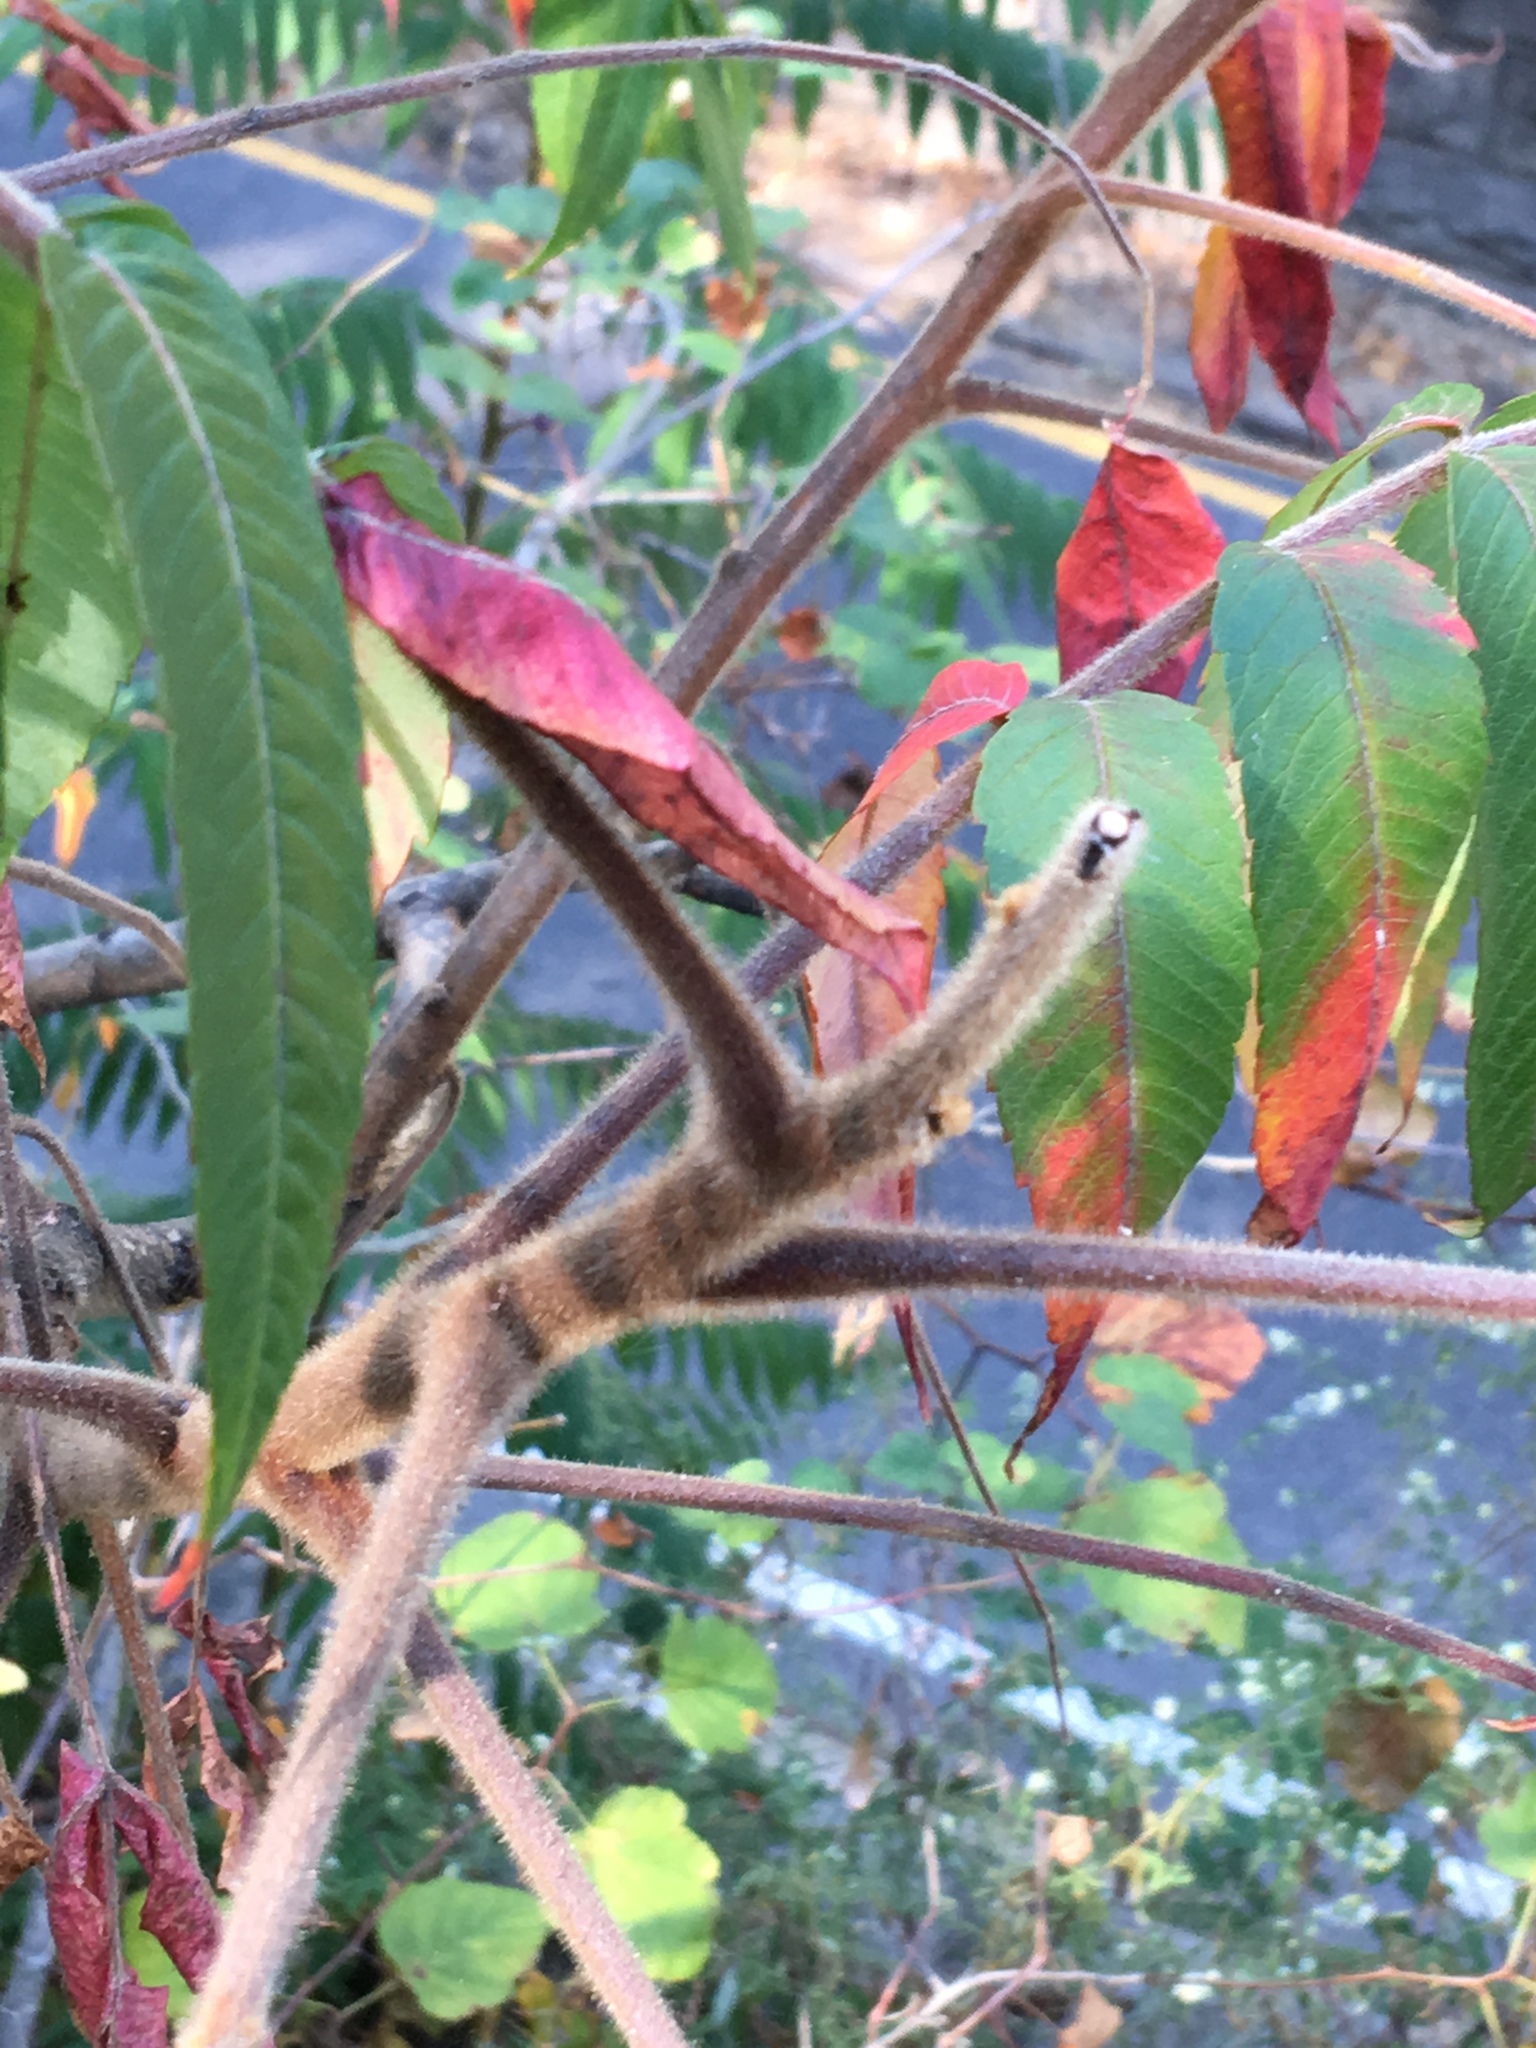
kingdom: Plantae
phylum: Tracheophyta
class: Magnoliopsida
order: Sapindales
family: Anacardiaceae
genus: Rhus
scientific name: Rhus typhina
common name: Staghorn sumac
